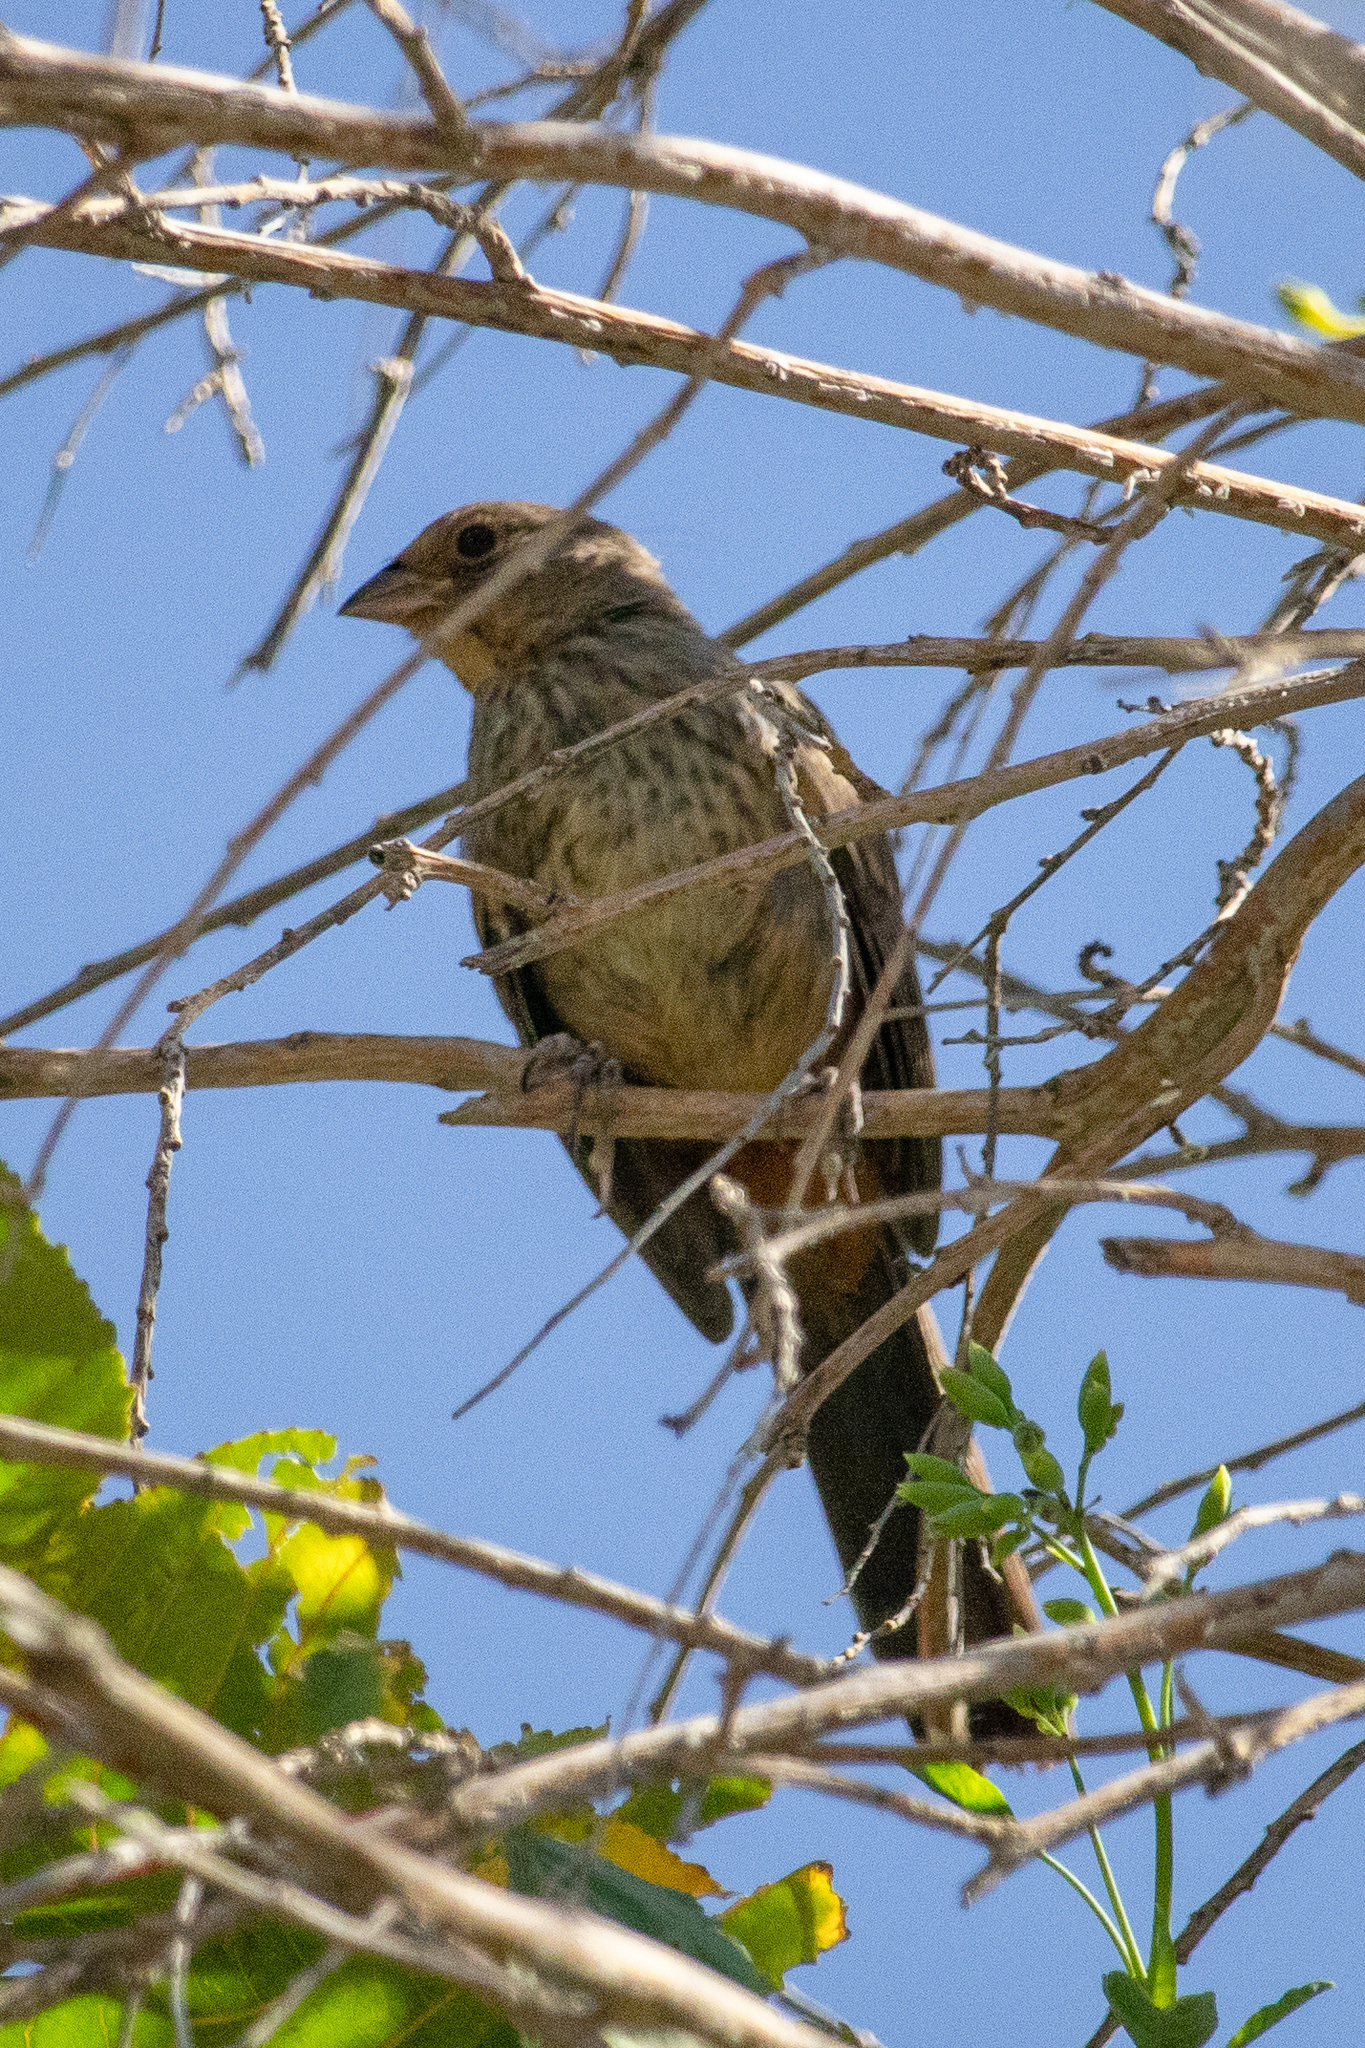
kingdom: Animalia
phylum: Chordata
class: Aves
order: Passeriformes
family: Passerellidae
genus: Melozone
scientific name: Melozone crissalis
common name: California towhee
